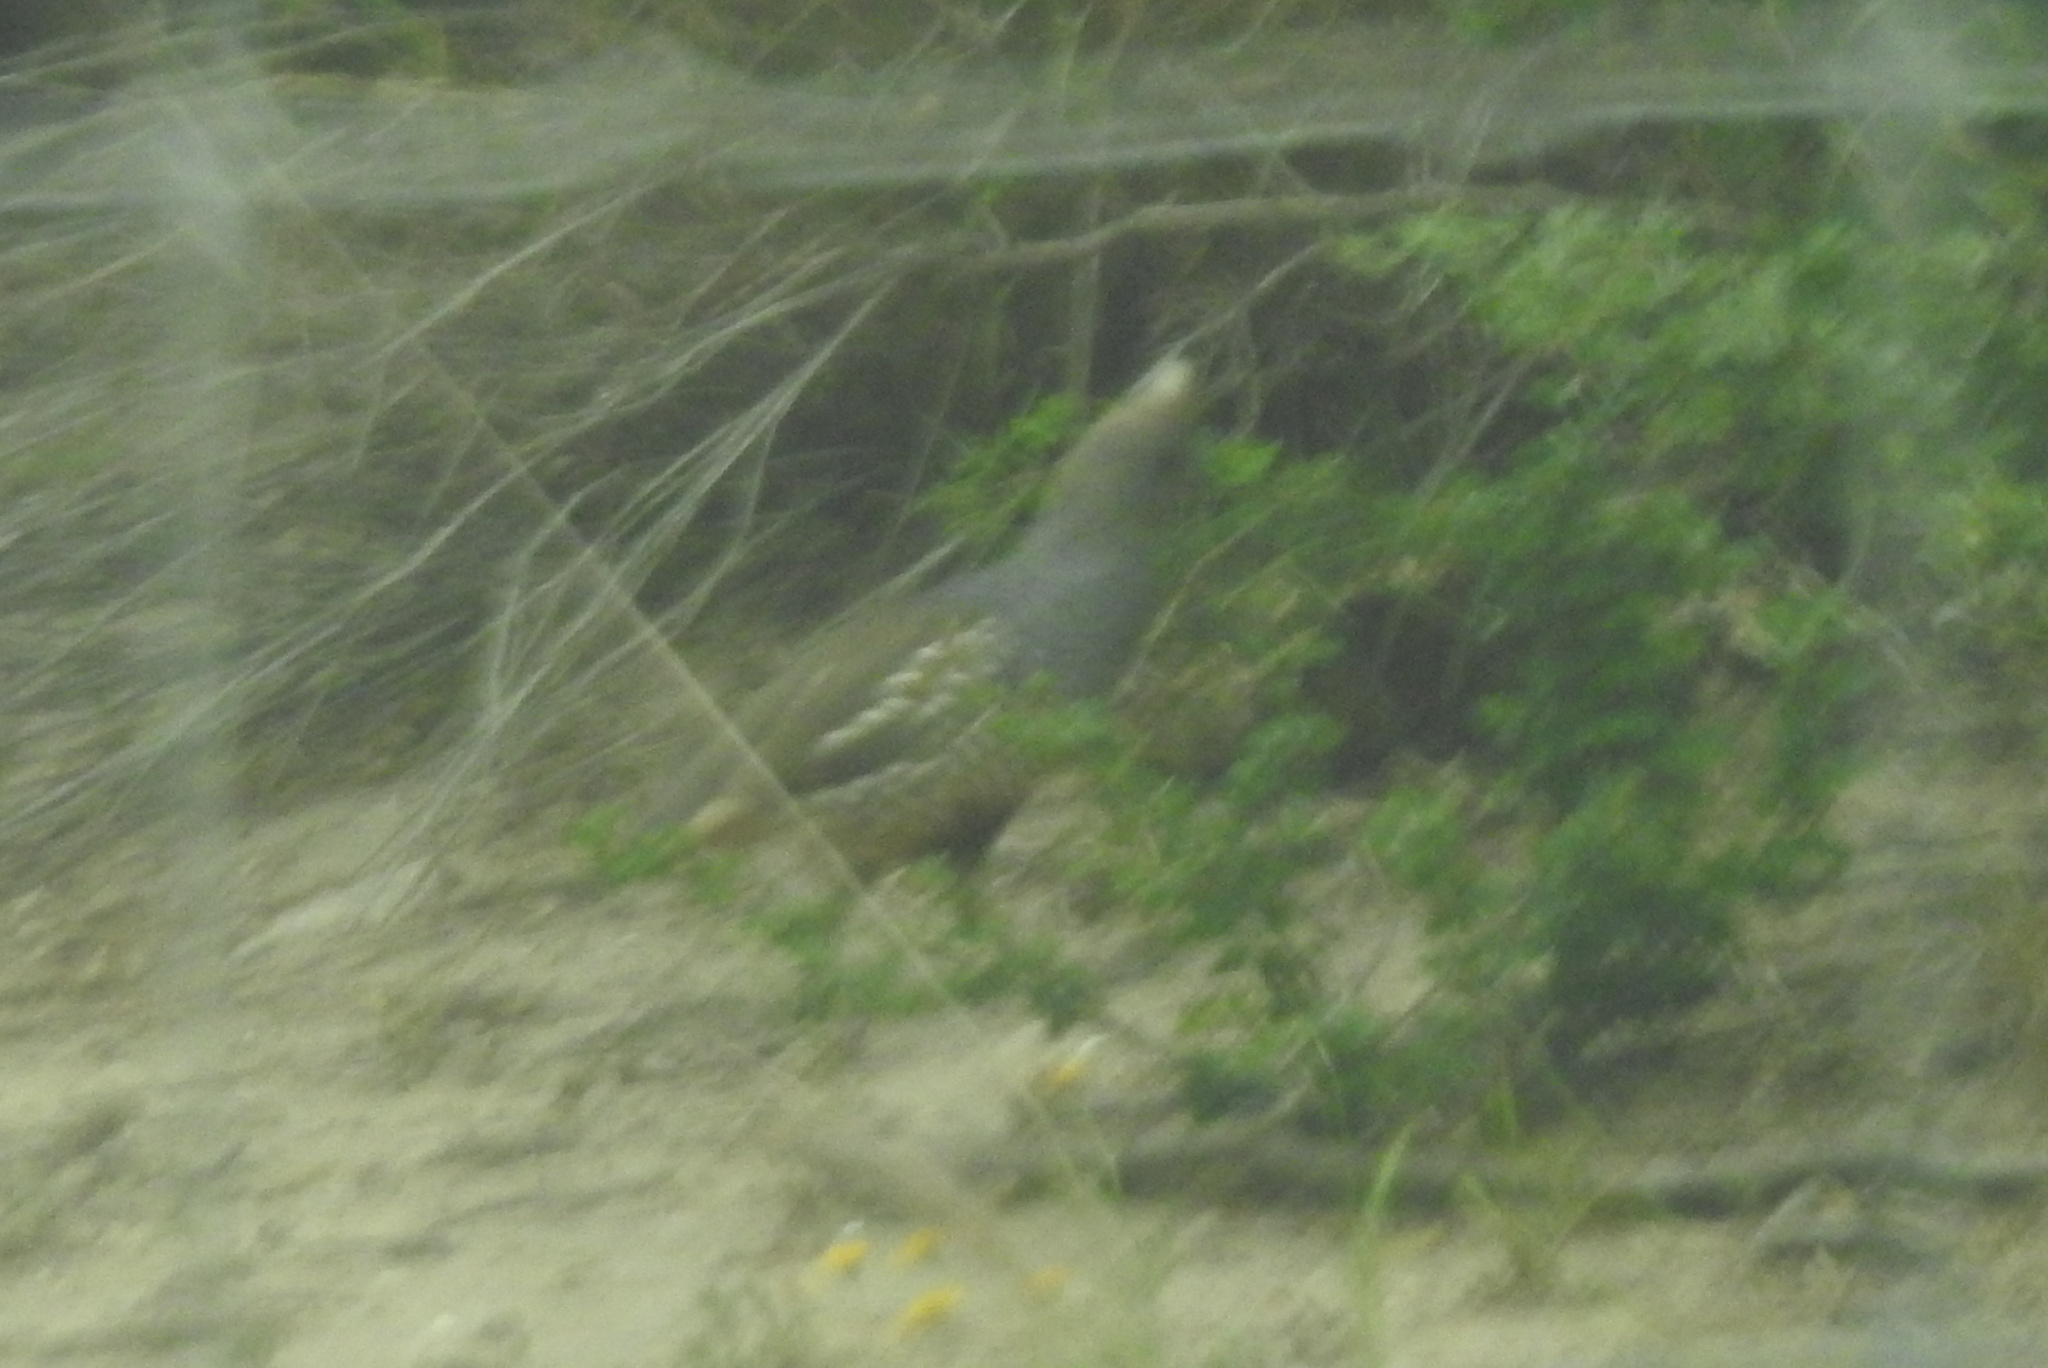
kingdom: Animalia
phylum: Chordata
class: Aves
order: Galliformes
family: Odontophoridae
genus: Callipepla
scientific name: Callipepla squamata
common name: Scaled quail
